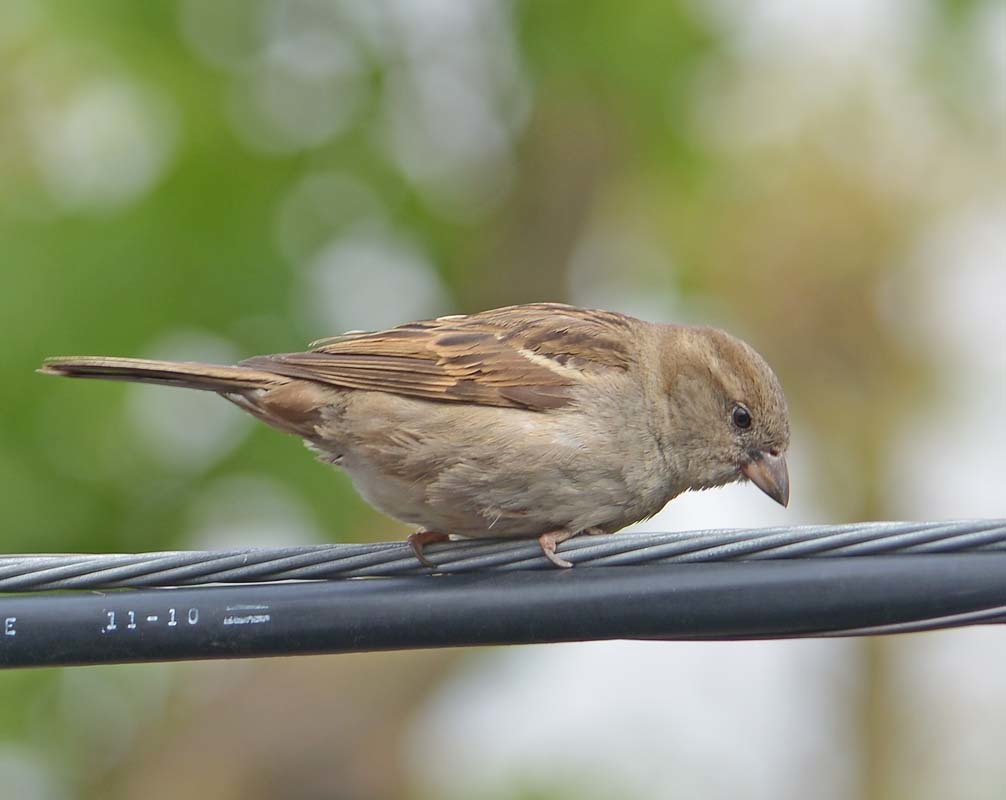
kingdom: Animalia
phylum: Chordata
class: Aves
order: Passeriformes
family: Passeridae
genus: Passer
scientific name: Passer domesticus
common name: House sparrow
